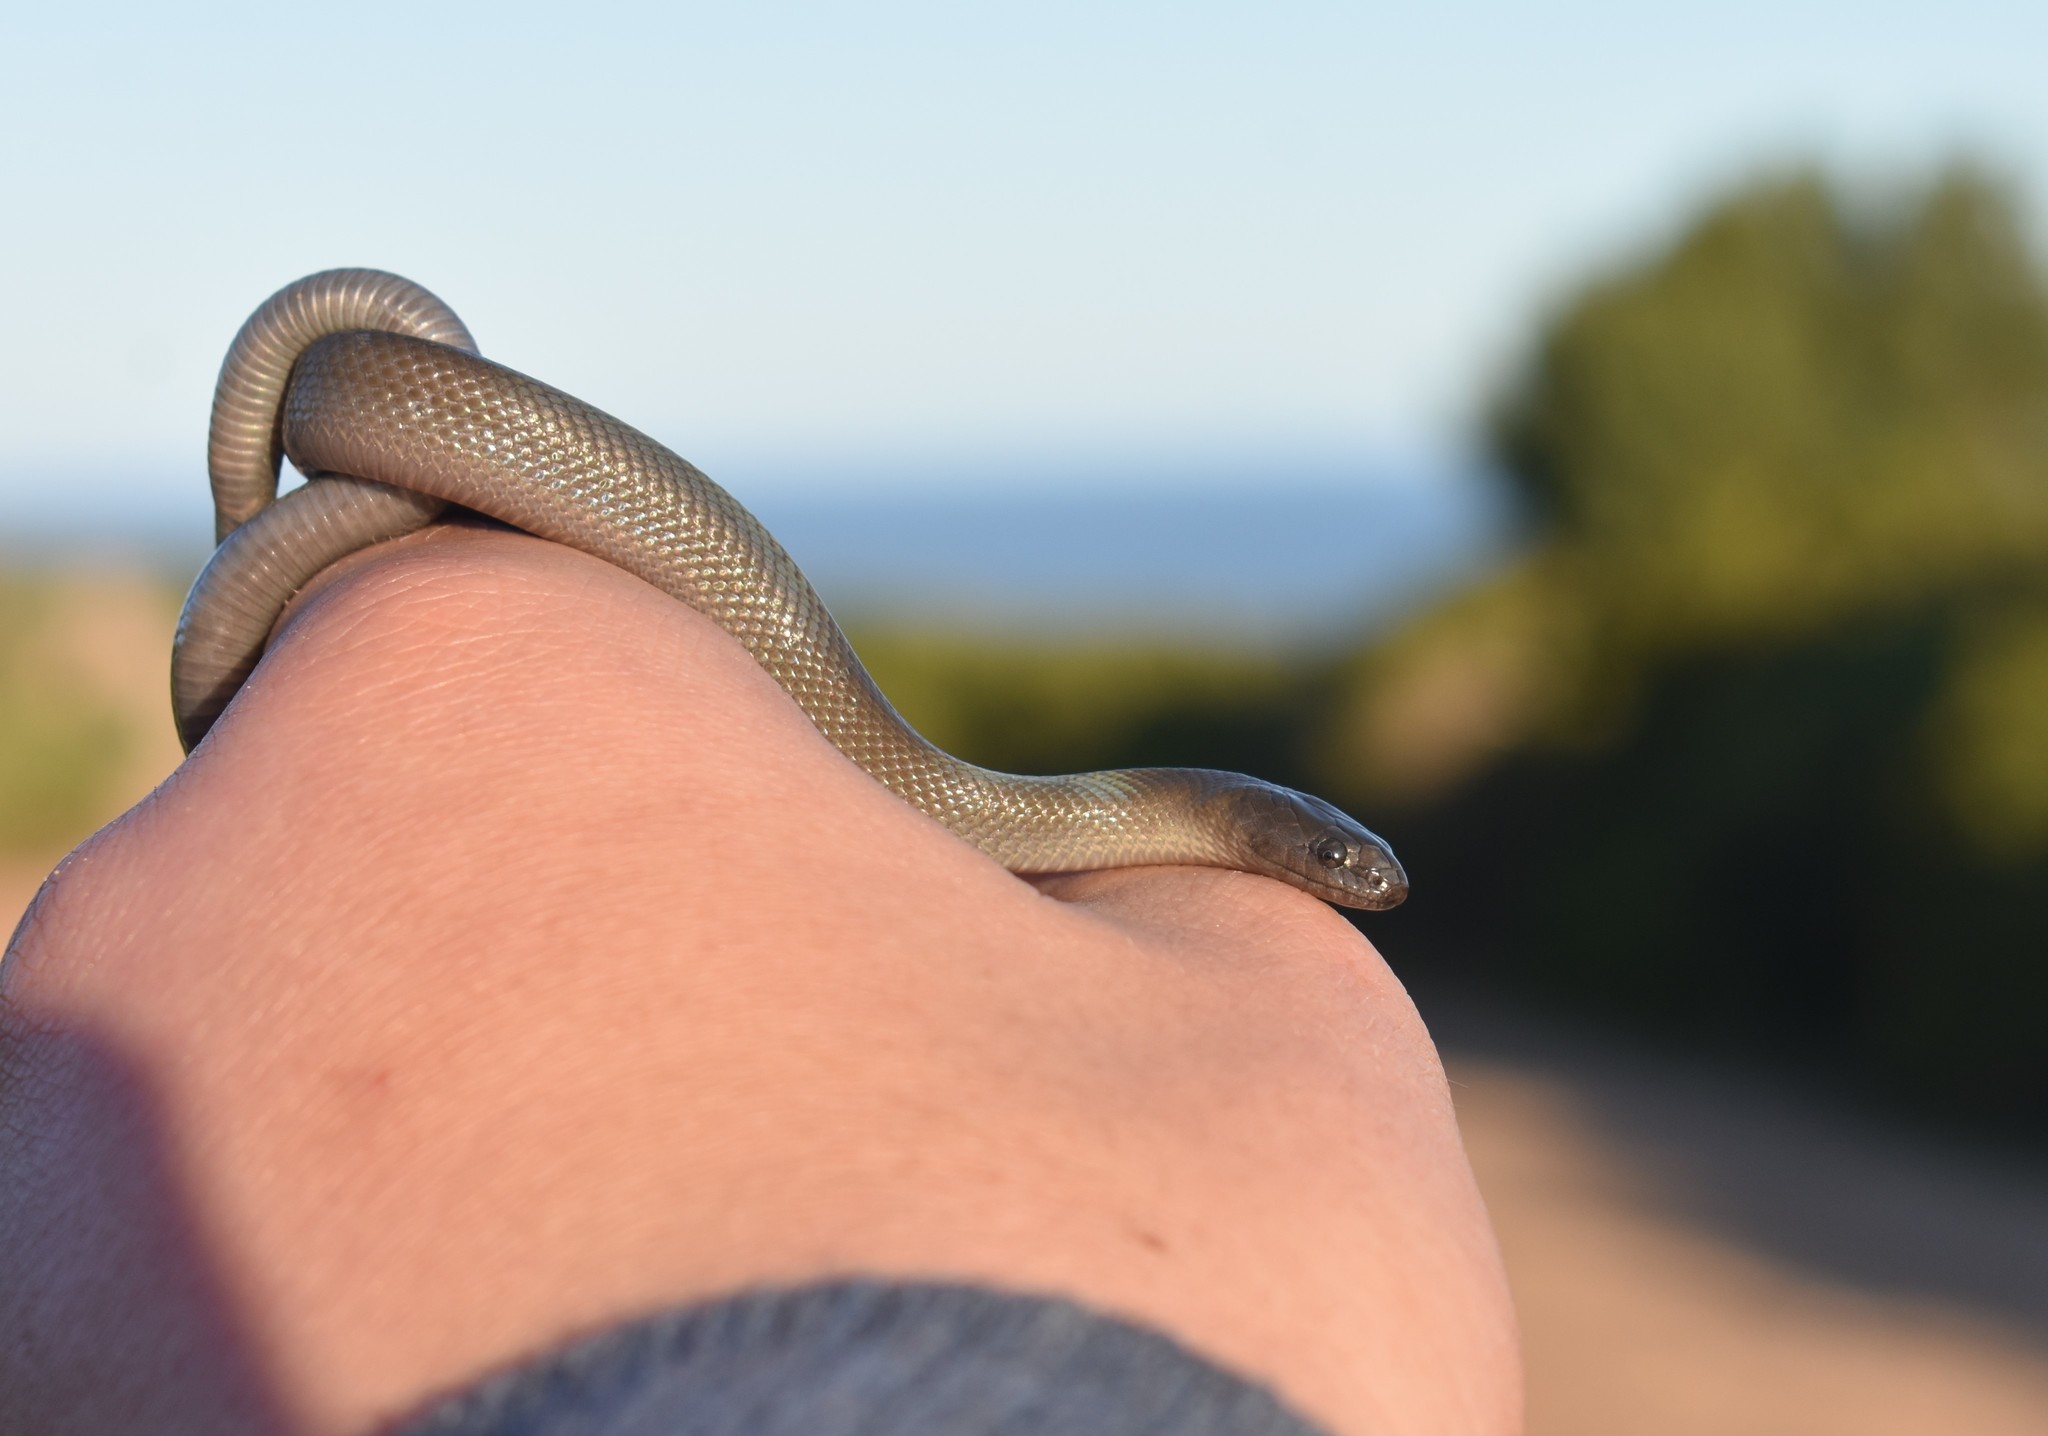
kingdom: Animalia
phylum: Chordata
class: Squamata
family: Lamprophiidae
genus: Lycodonomorphus
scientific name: Lycodonomorphus inornatus
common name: Black house snake
